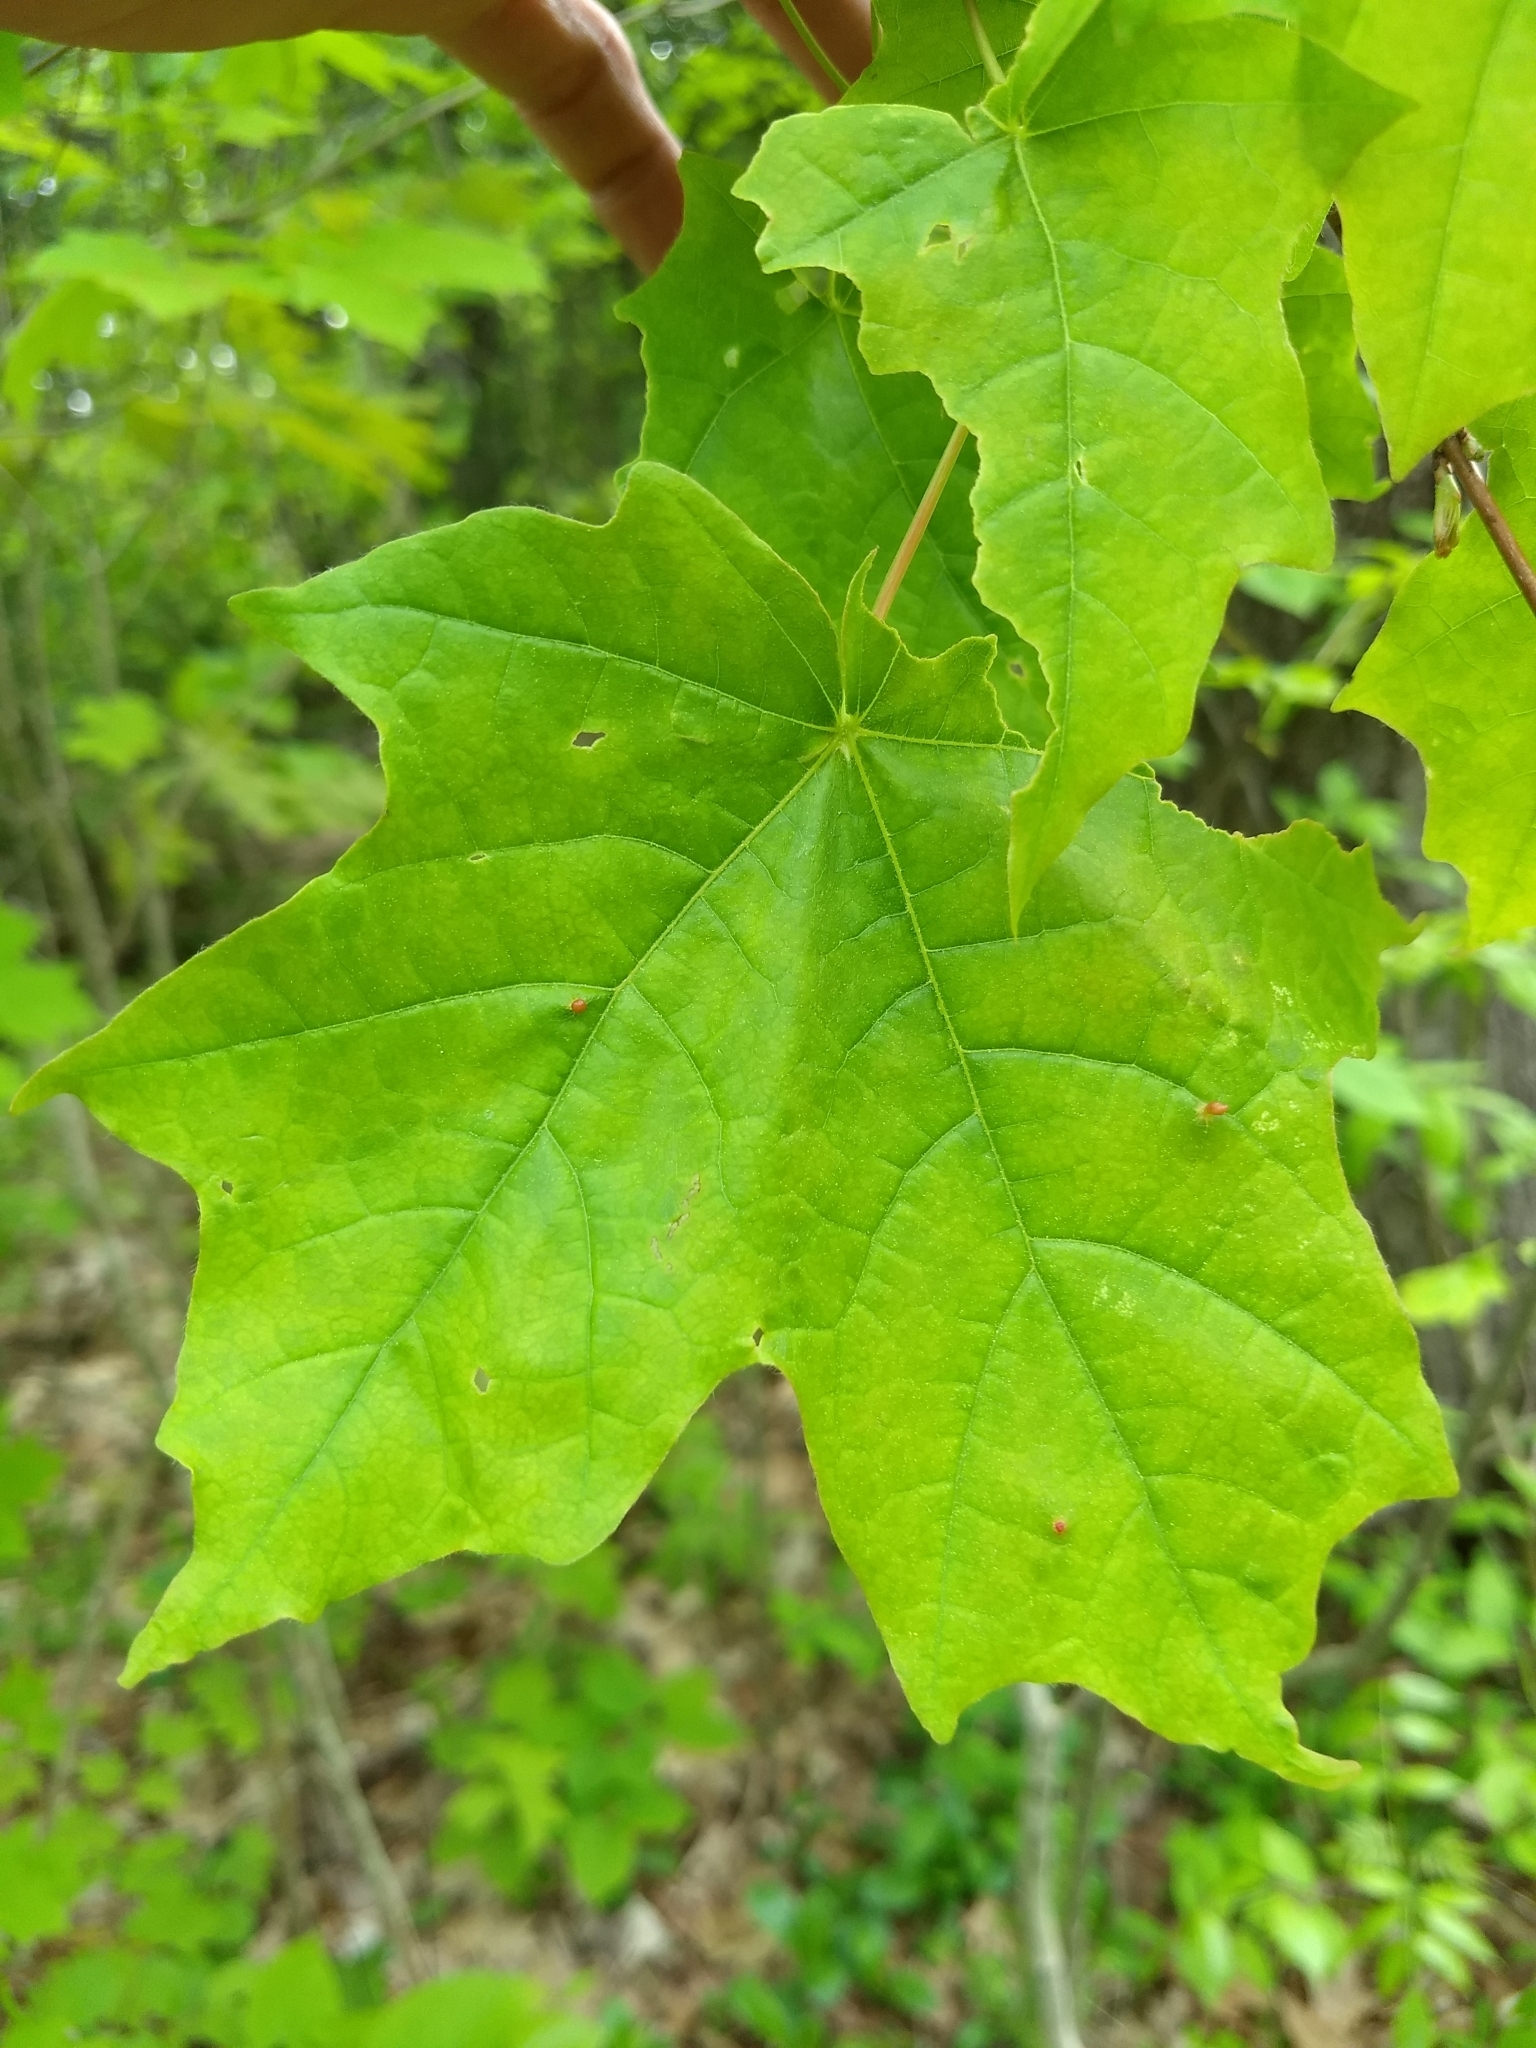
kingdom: Animalia
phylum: Arthropoda
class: Arachnida
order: Trombidiformes
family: Eriophyidae
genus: Vasates
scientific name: Vasates aceriscrumena
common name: Maple spindle gall mite
